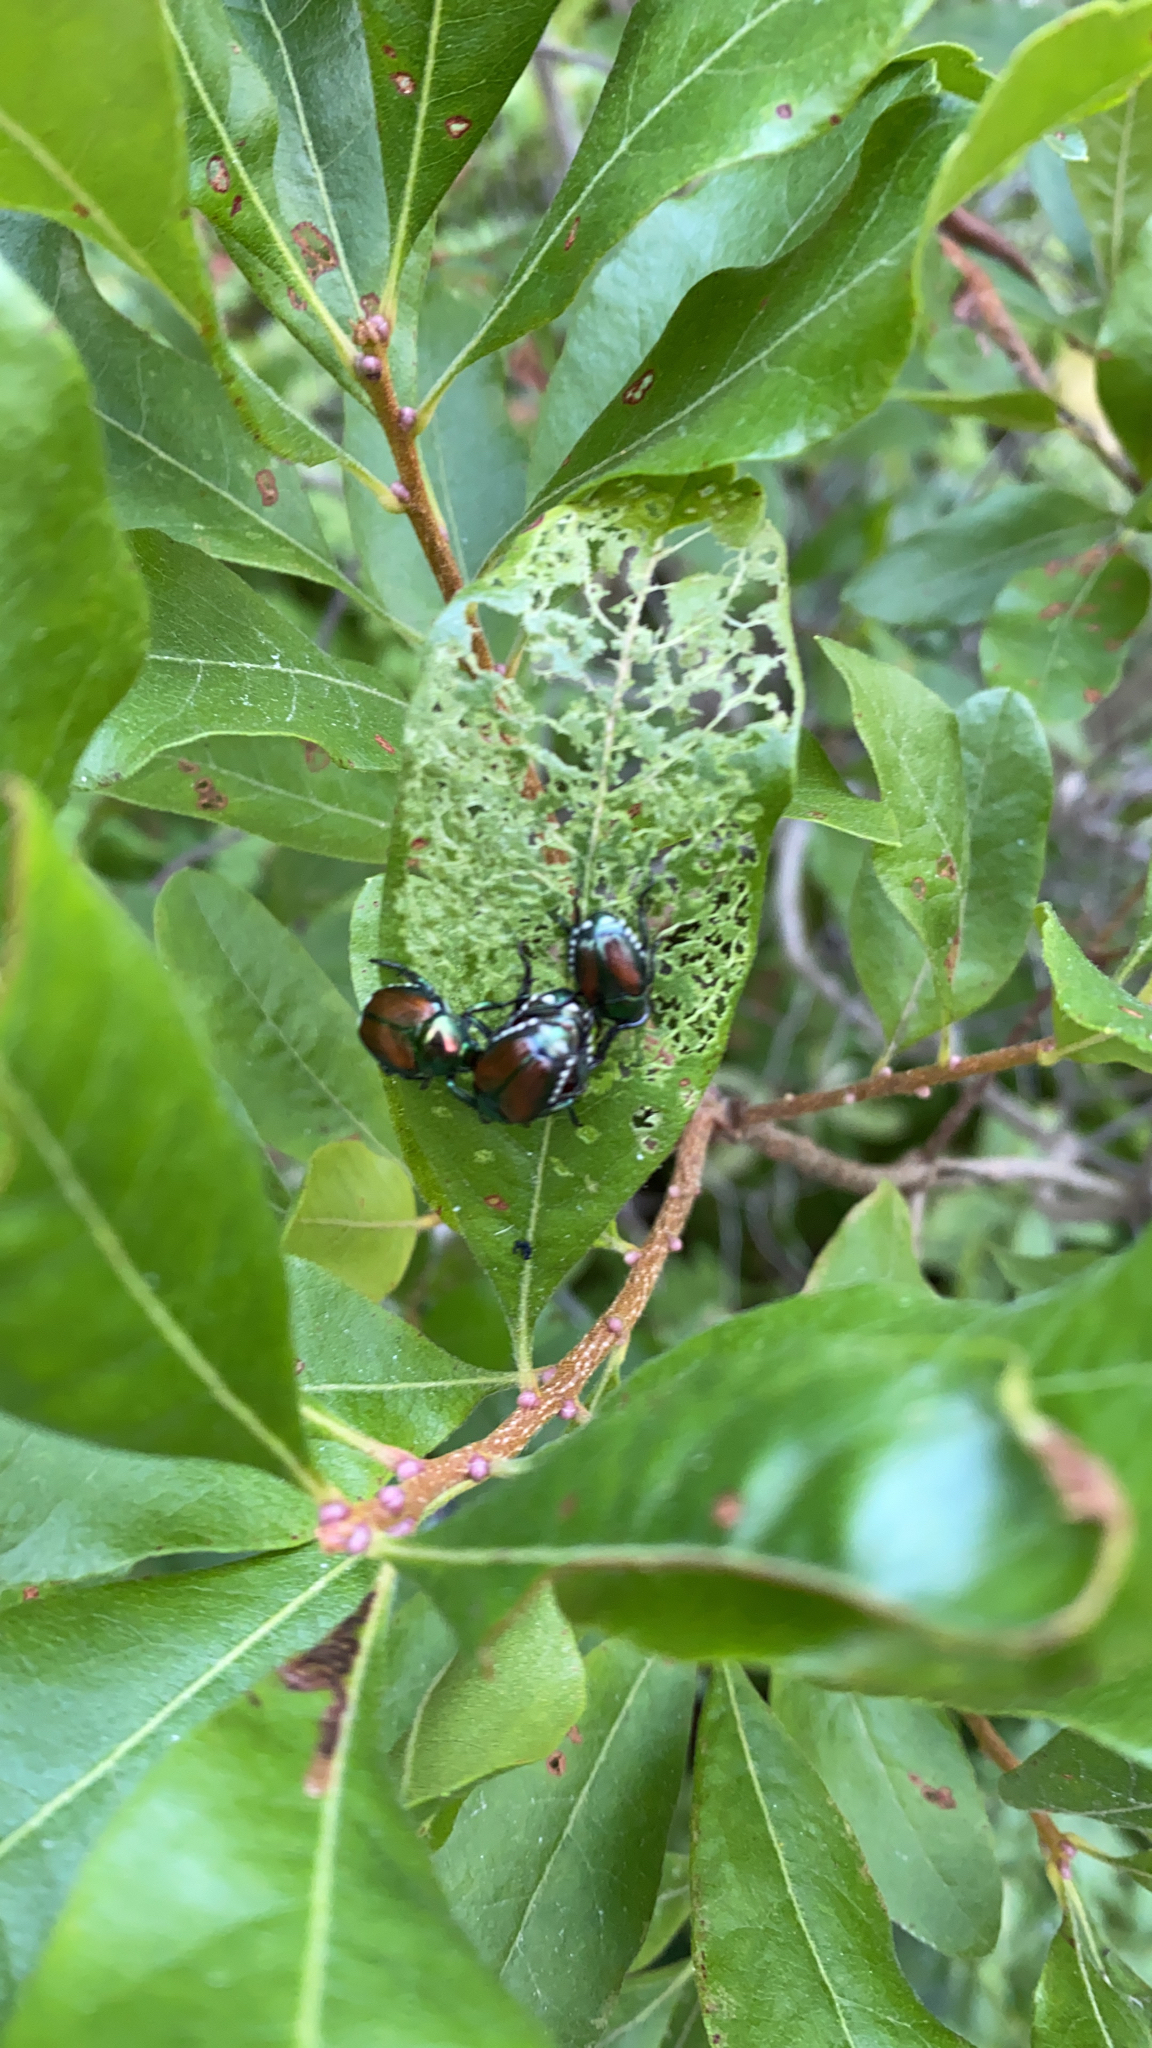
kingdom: Animalia
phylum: Arthropoda
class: Insecta
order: Coleoptera
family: Scarabaeidae
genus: Popillia
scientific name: Popillia japonica
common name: Japanese beetle
